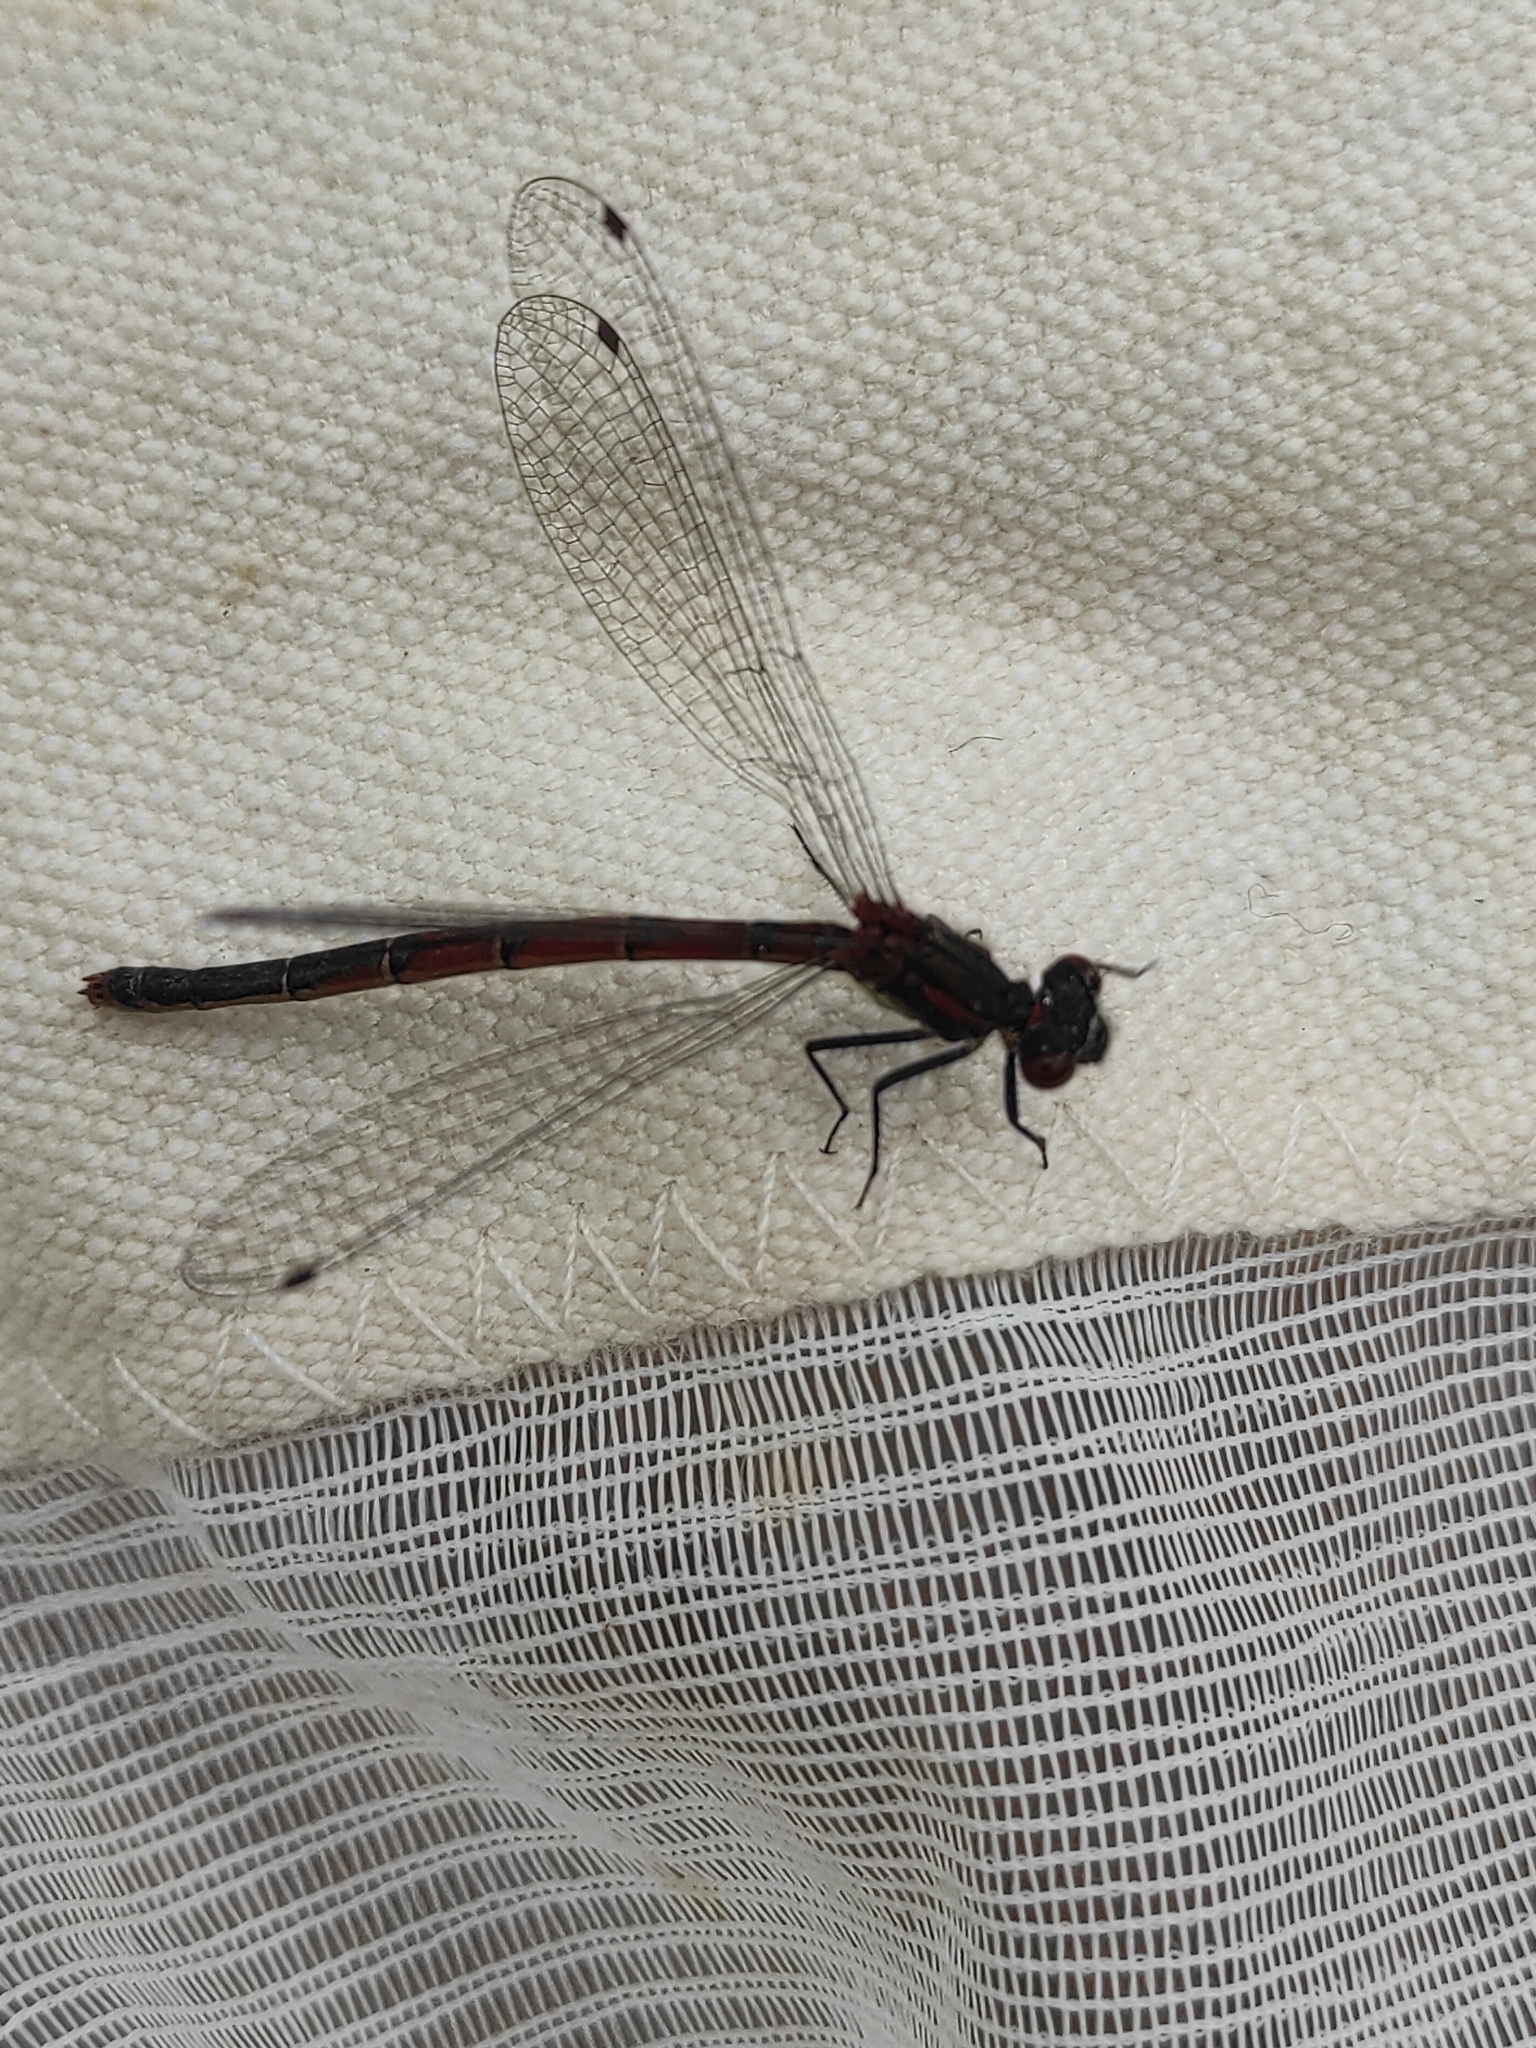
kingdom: Animalia
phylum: Arthropoda
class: Insecta
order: Odonata
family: Coenagrionidae
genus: Pyrrhosoma
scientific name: Pyrrhosoma nymphula
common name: Large red damsel
